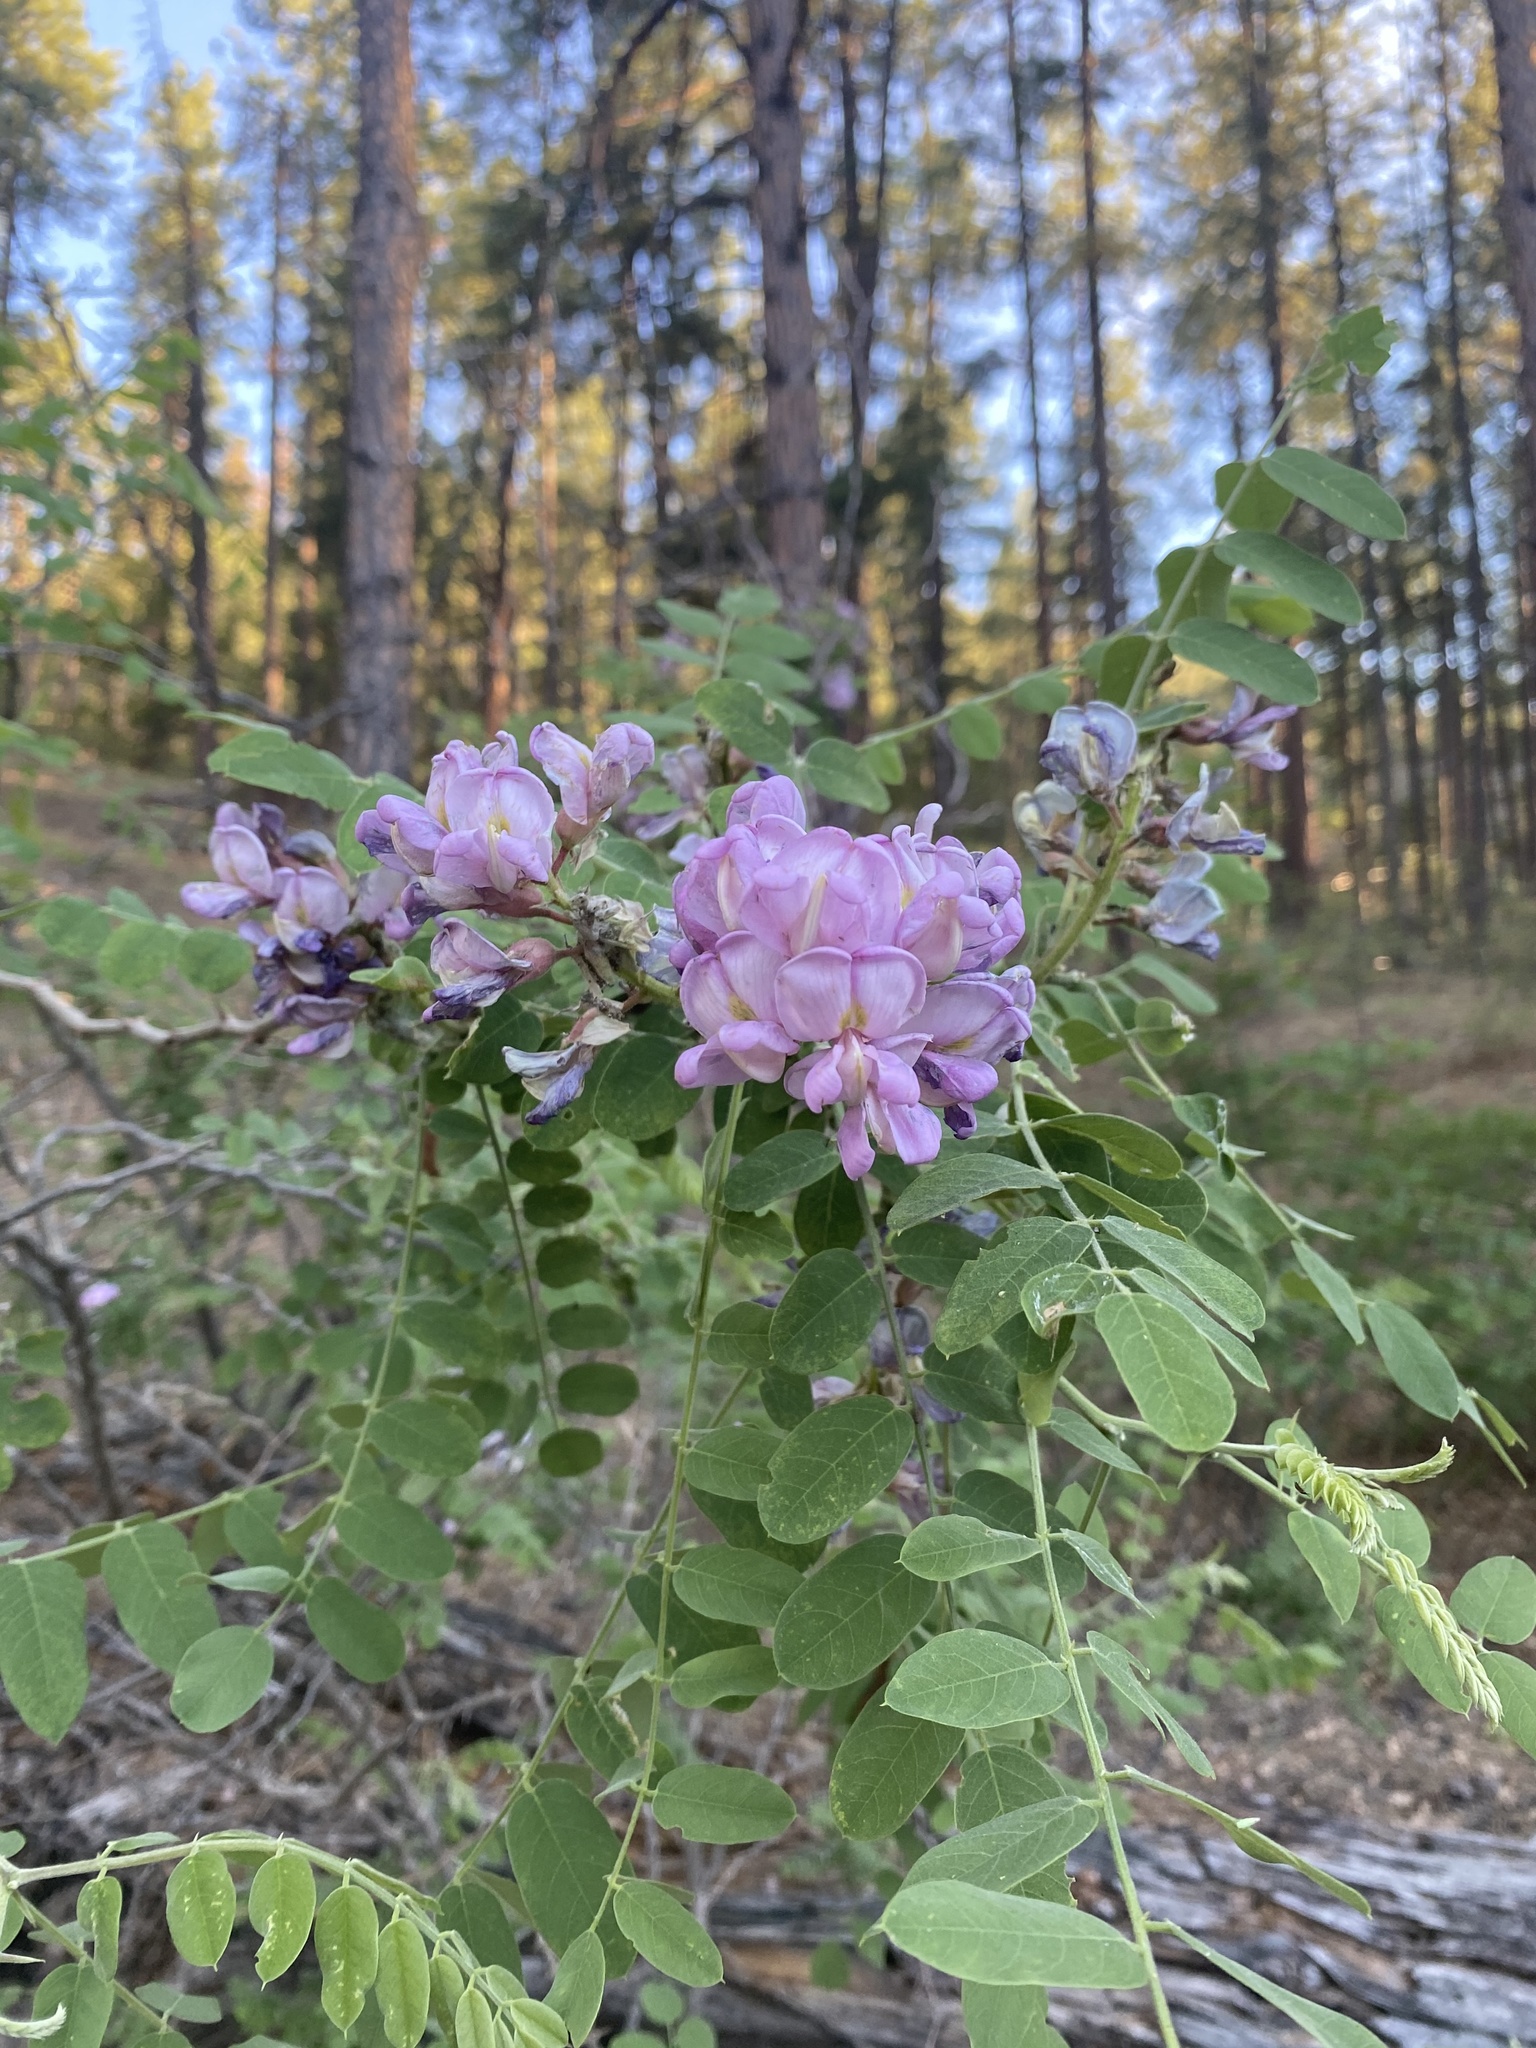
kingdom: Plantae
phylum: Tracheophyta
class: Magnoliopsida
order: Fabales
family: Fabaceae
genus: Robinia
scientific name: Robinia neomexicana
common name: New mexico locust
